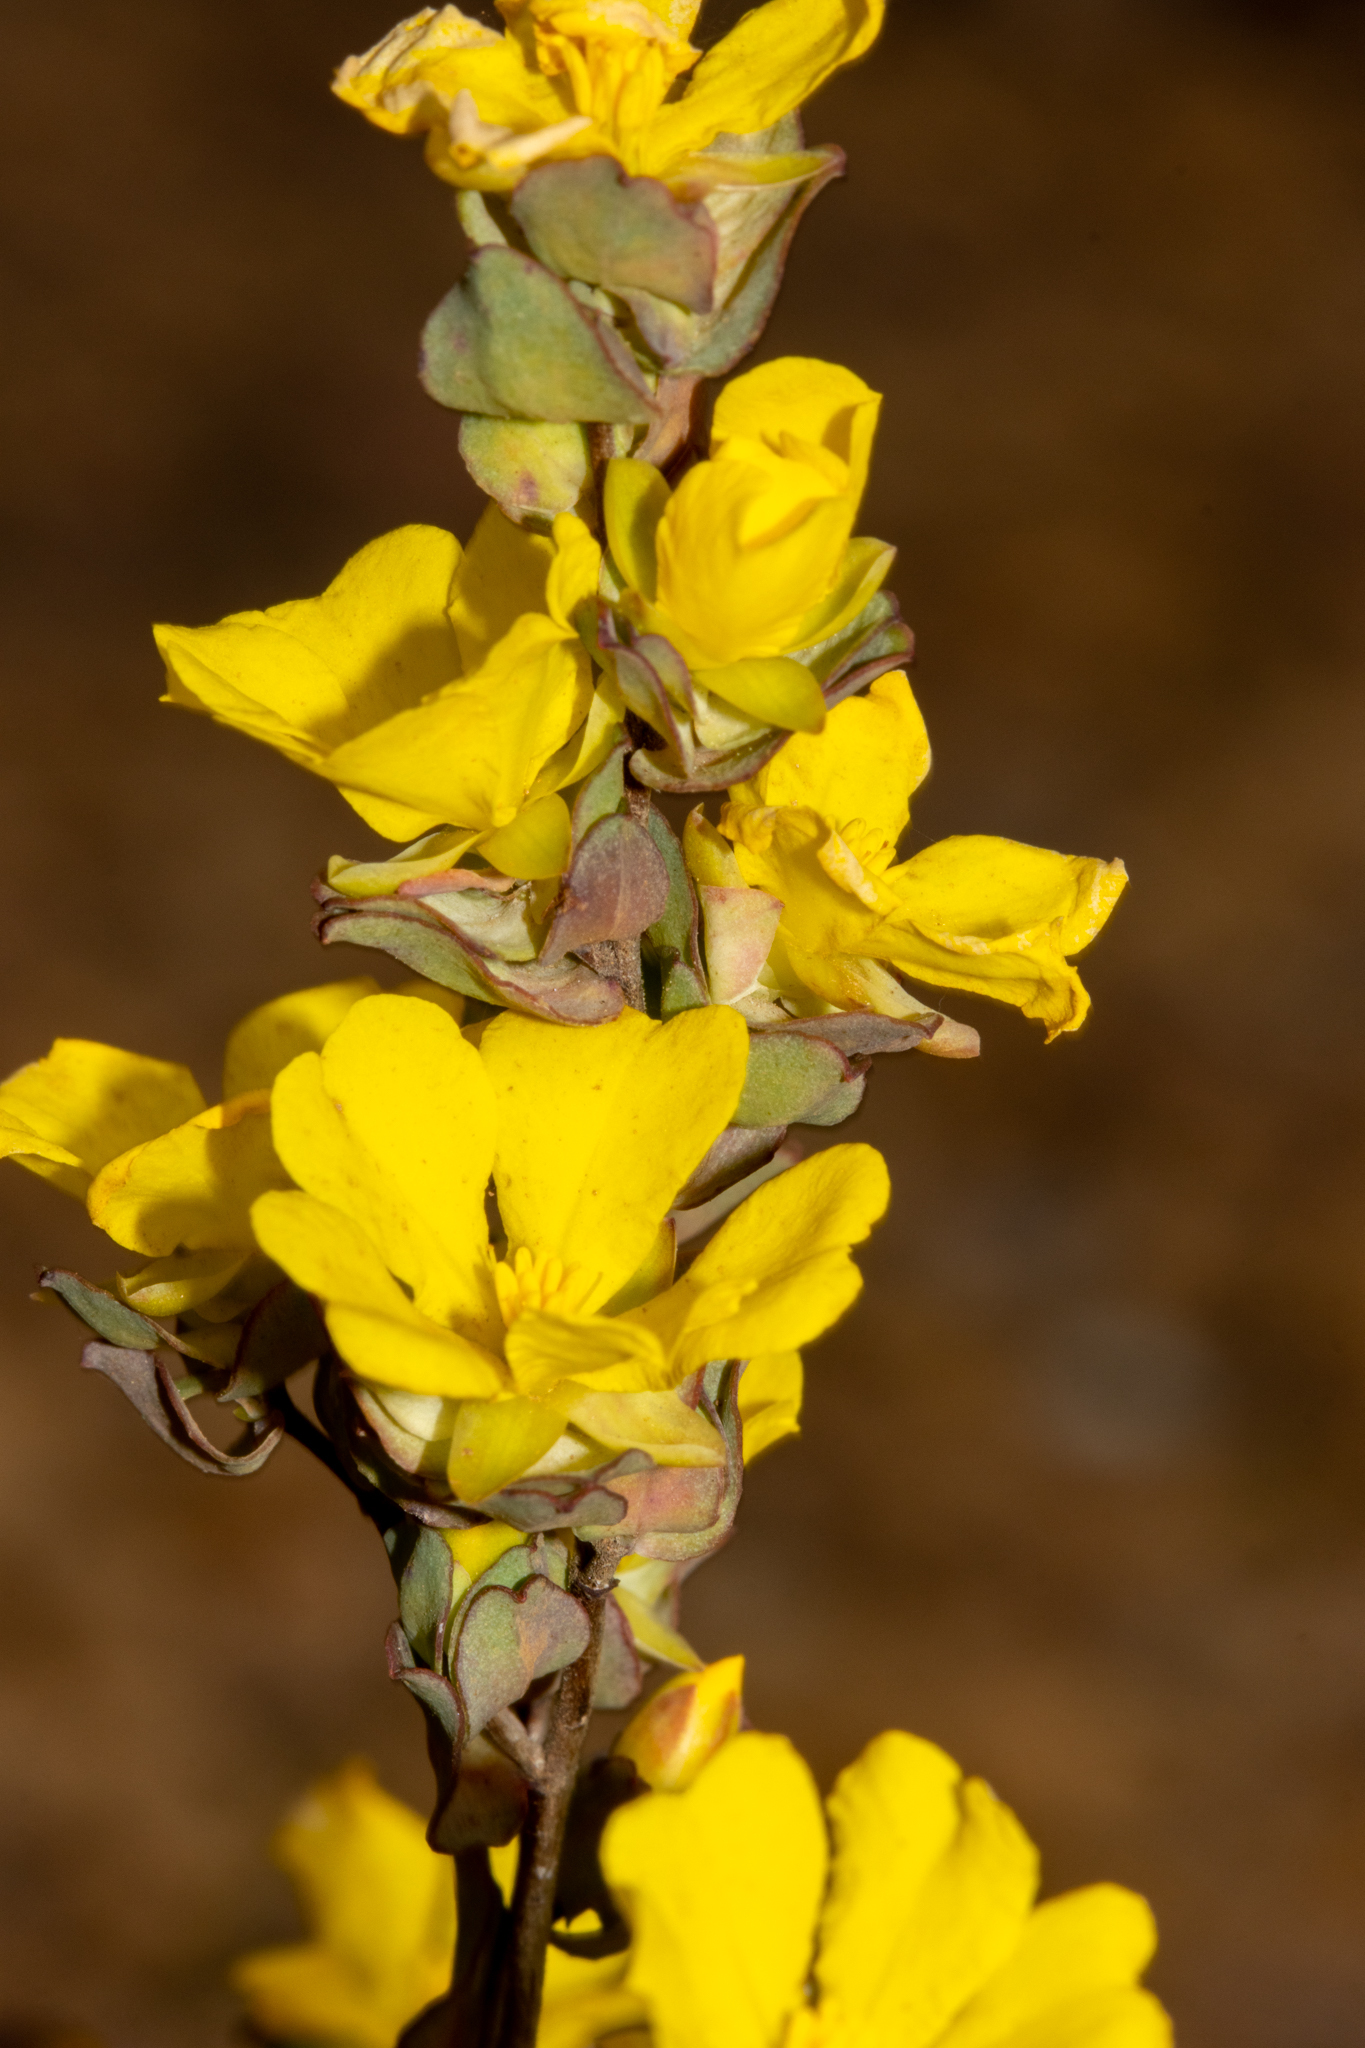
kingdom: Plantae
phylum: Tracheophyta
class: Magnoliopsida
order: Dilleniales
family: Dilleniaceae
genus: Hibbertia
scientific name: Hibbertia glomerata
